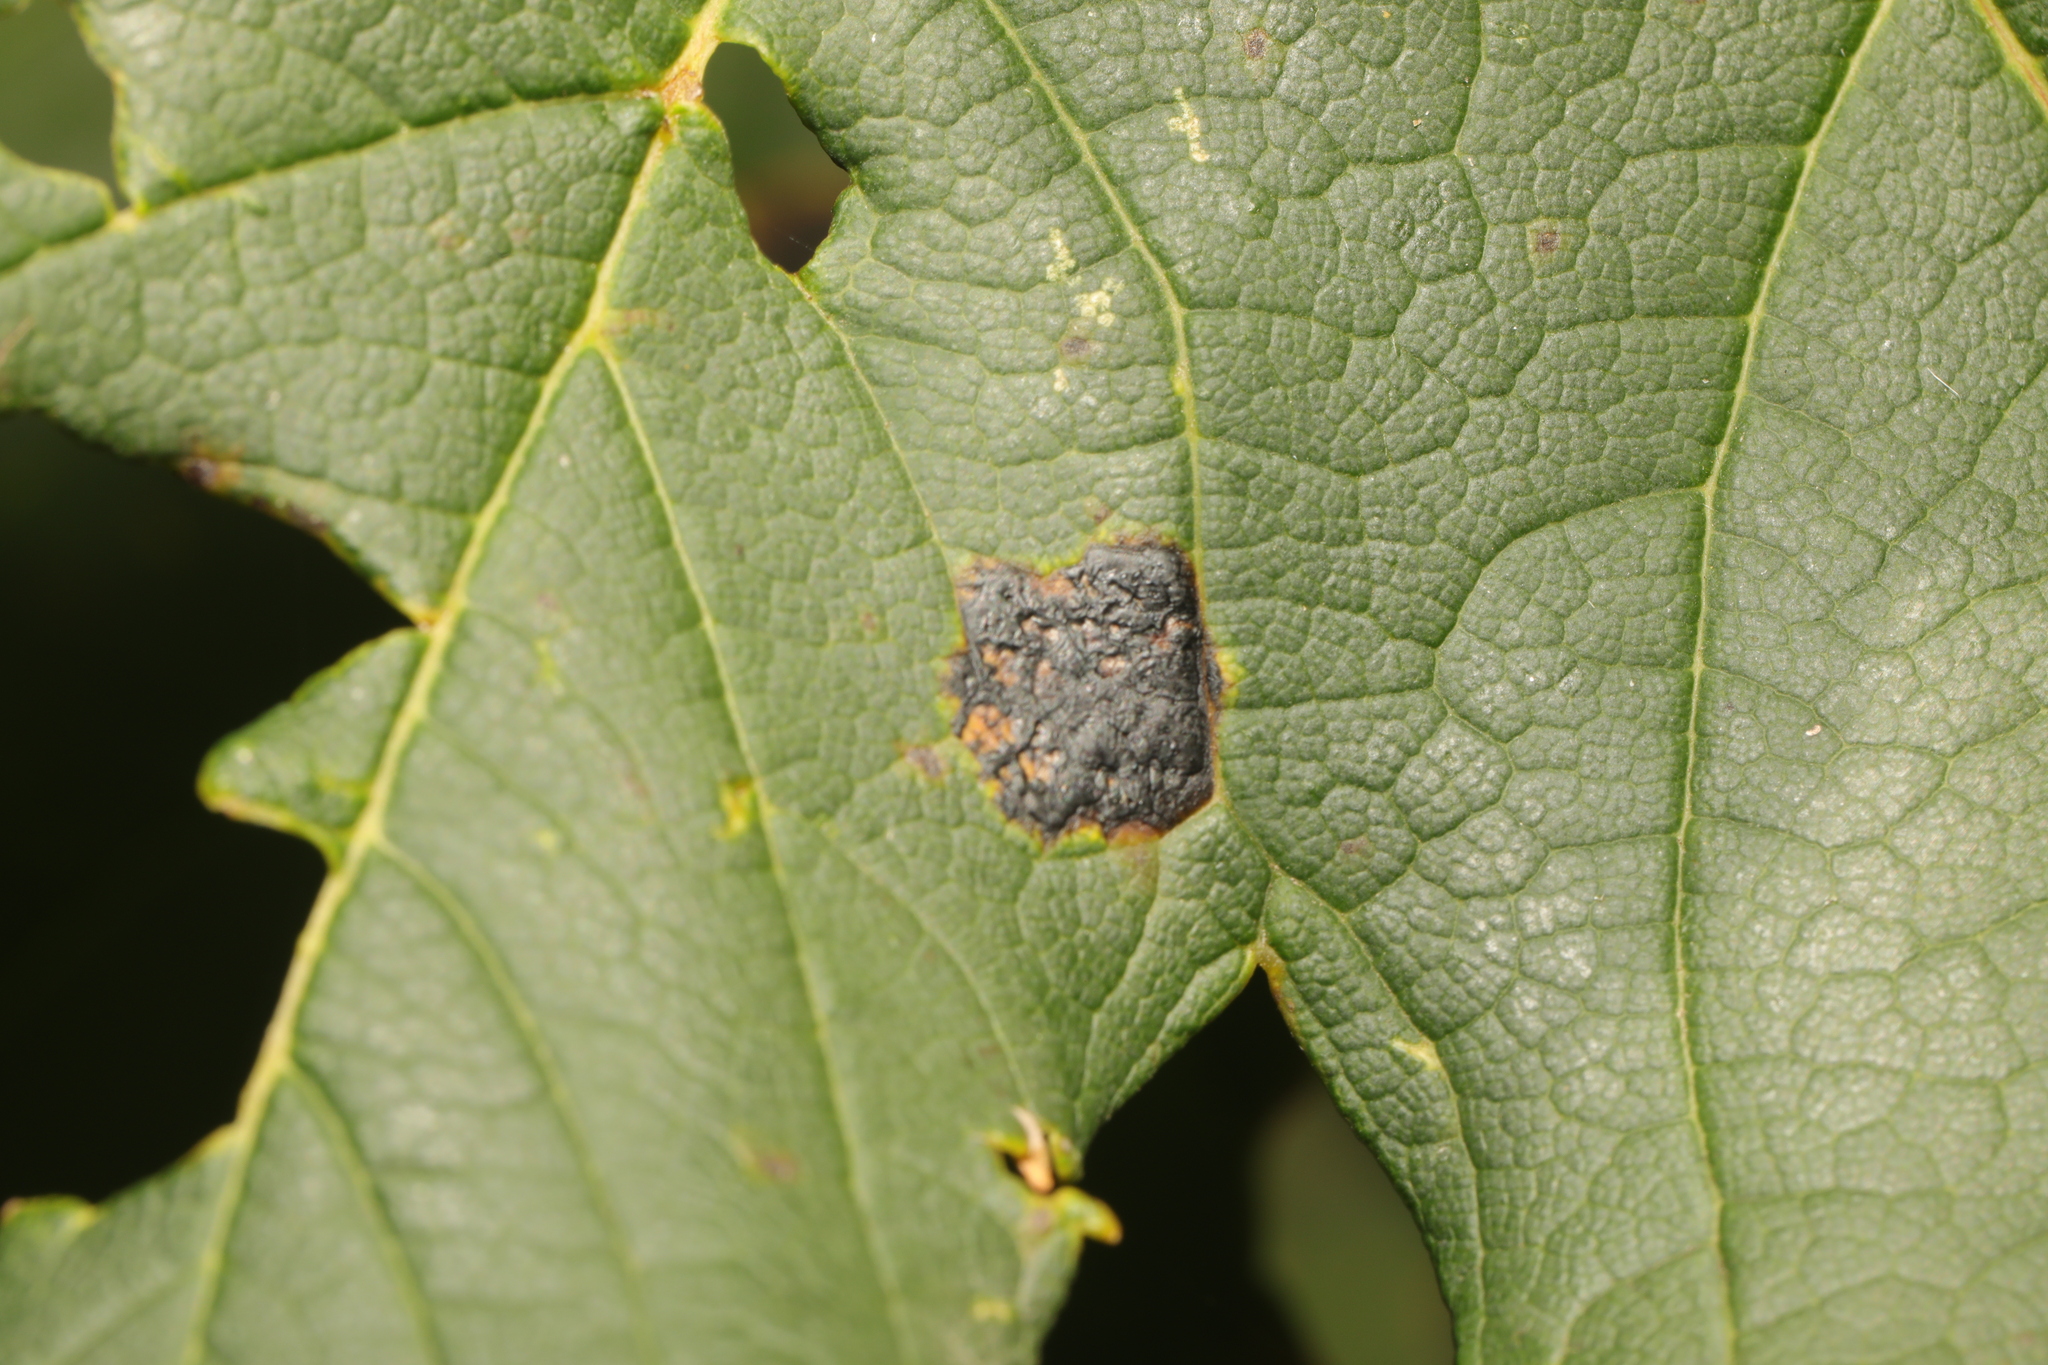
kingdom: Fungi
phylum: Ascomycota
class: Leotiomycetes
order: Rhytismatales
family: Rhytismataceae
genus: Rhytisma
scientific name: Rhytisma acerinum
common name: European tar spot
